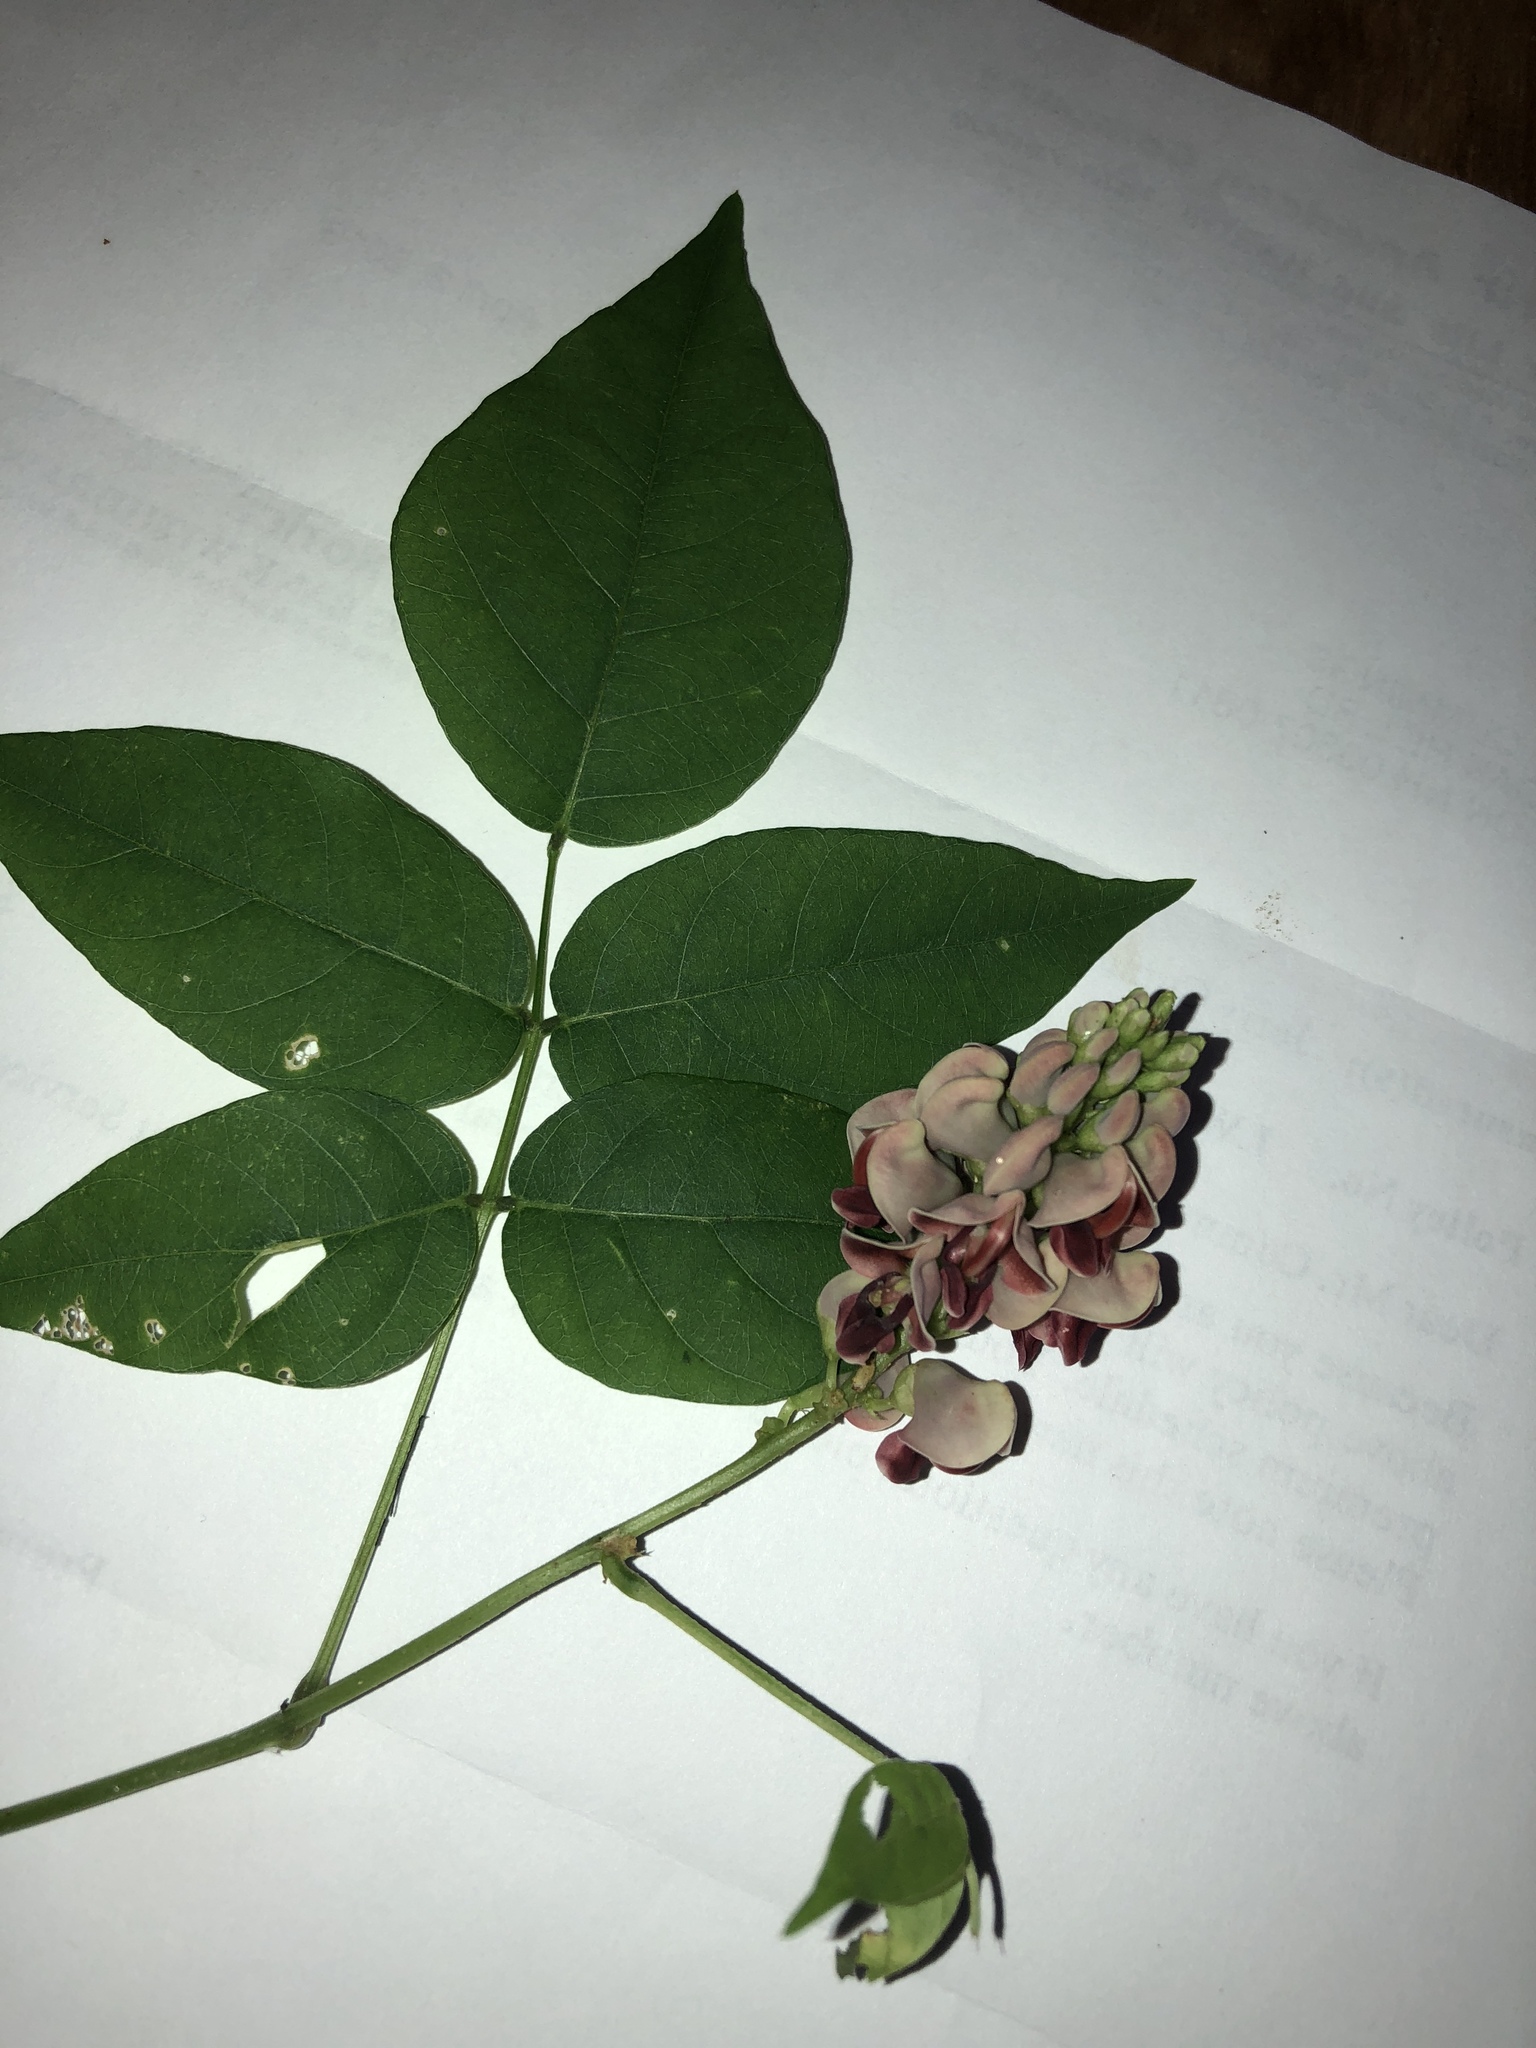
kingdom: Plantae
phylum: Tracheophyta
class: Magnoliopsida
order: Fabales
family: Fabaceae
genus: Apios
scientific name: Apios americana
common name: American potato-bean
